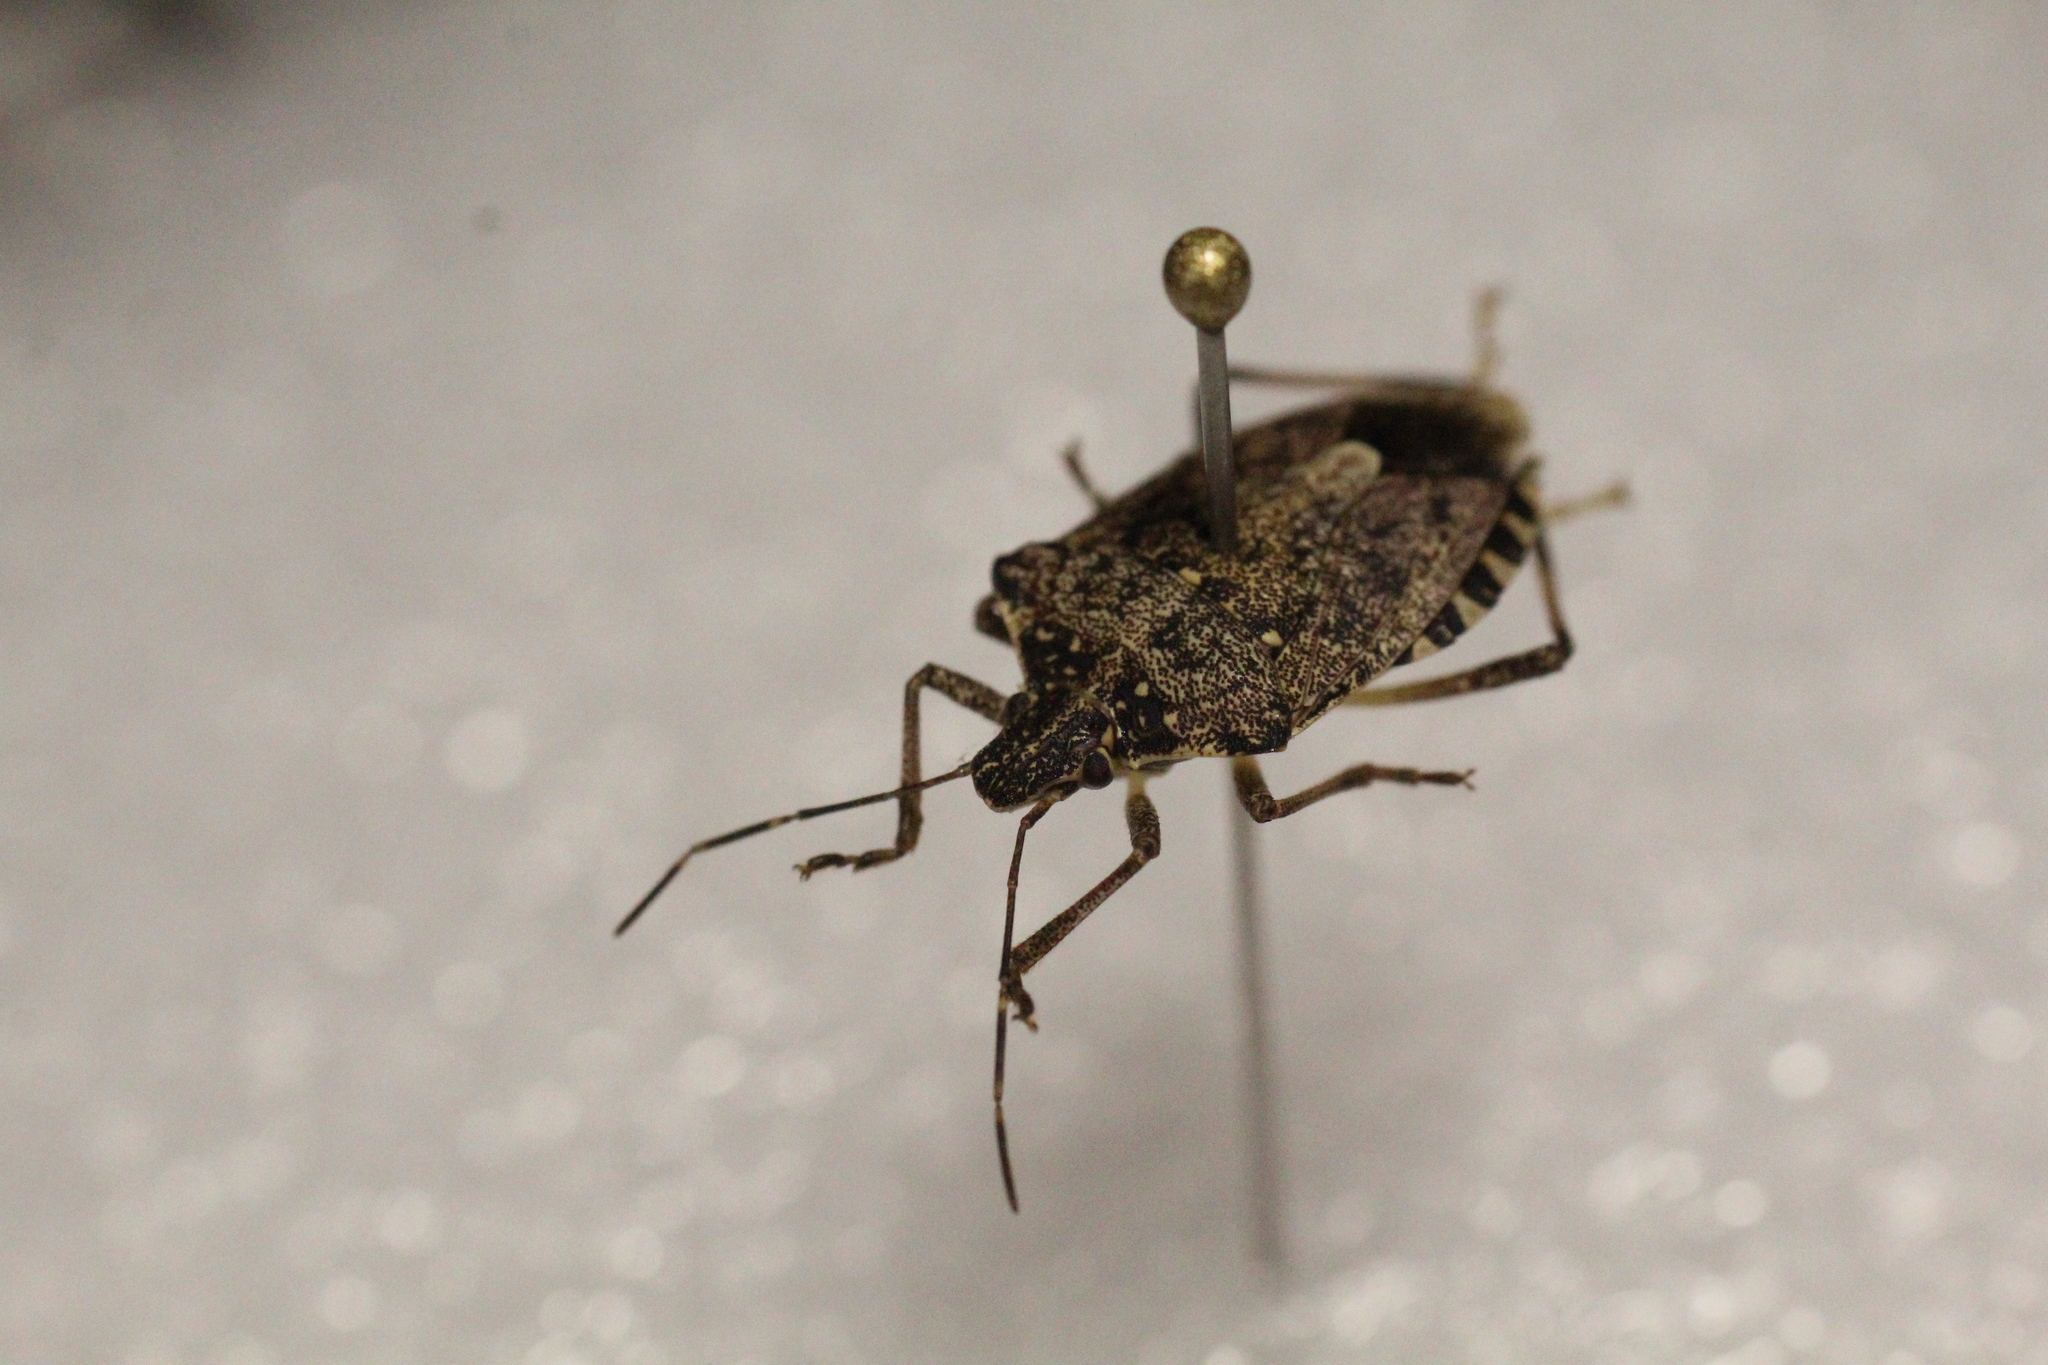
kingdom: Animalia
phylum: Arthropoda
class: Insecta
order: Hemiptera
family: Pentatomidae
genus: Halyomorpha
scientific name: Halyomorpha halys
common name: Brown marmorated stink bug
